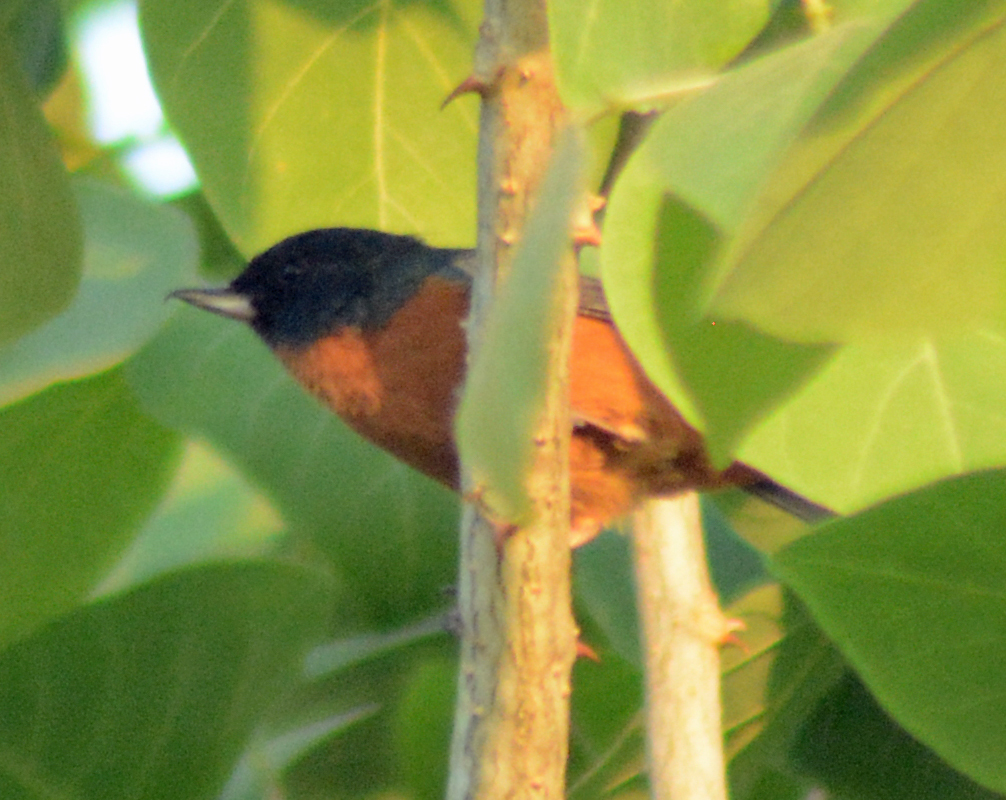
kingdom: Animalia
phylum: Chordata
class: Aves
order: Passeriformes
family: Thraupidae
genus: Diglossa
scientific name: Diglossa baritula
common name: Cinnamon-bellied flowerpiercer
